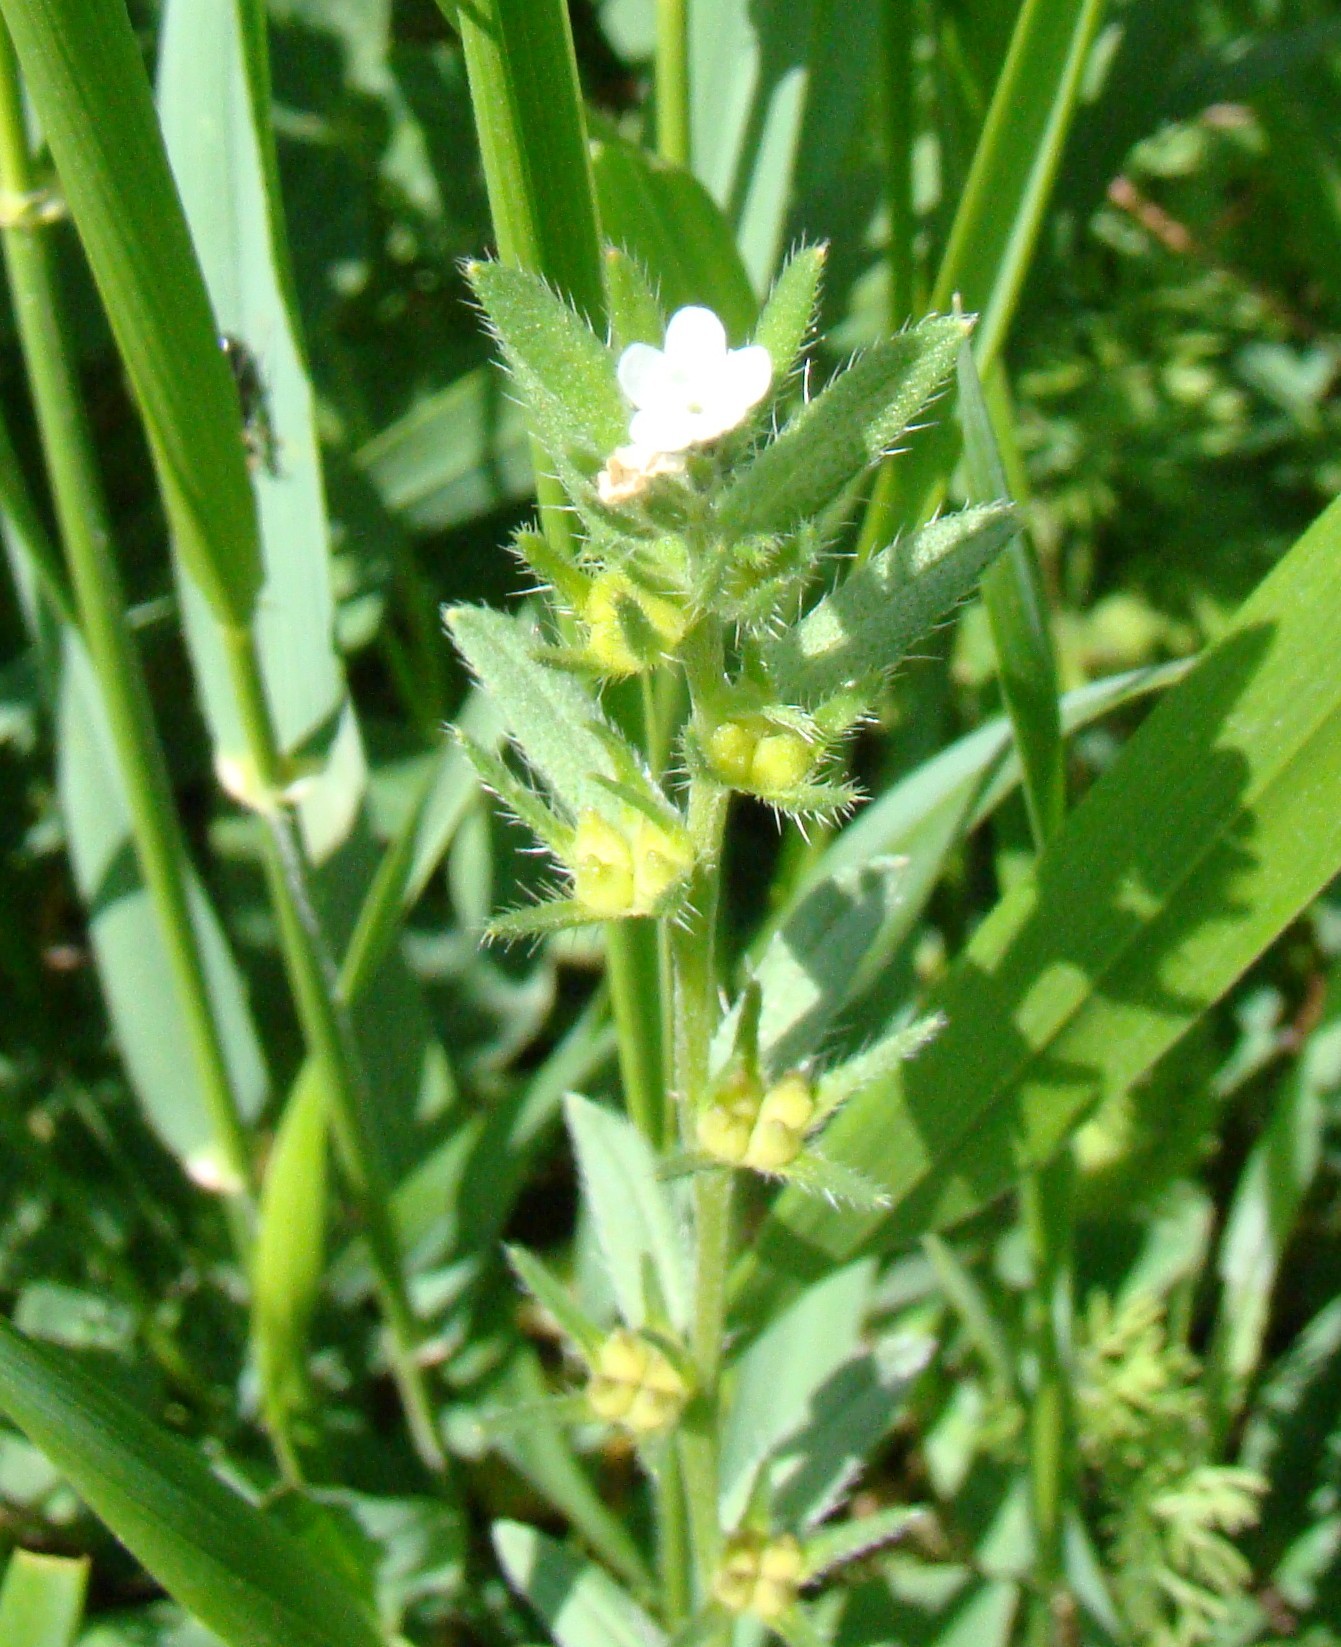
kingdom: Plantae
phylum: Tracheophyta
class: Magnoliopsida
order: Boraginales
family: Boraginaceae
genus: Buglossoides
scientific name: Buglossoides arvensis
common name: Corn gromwell
